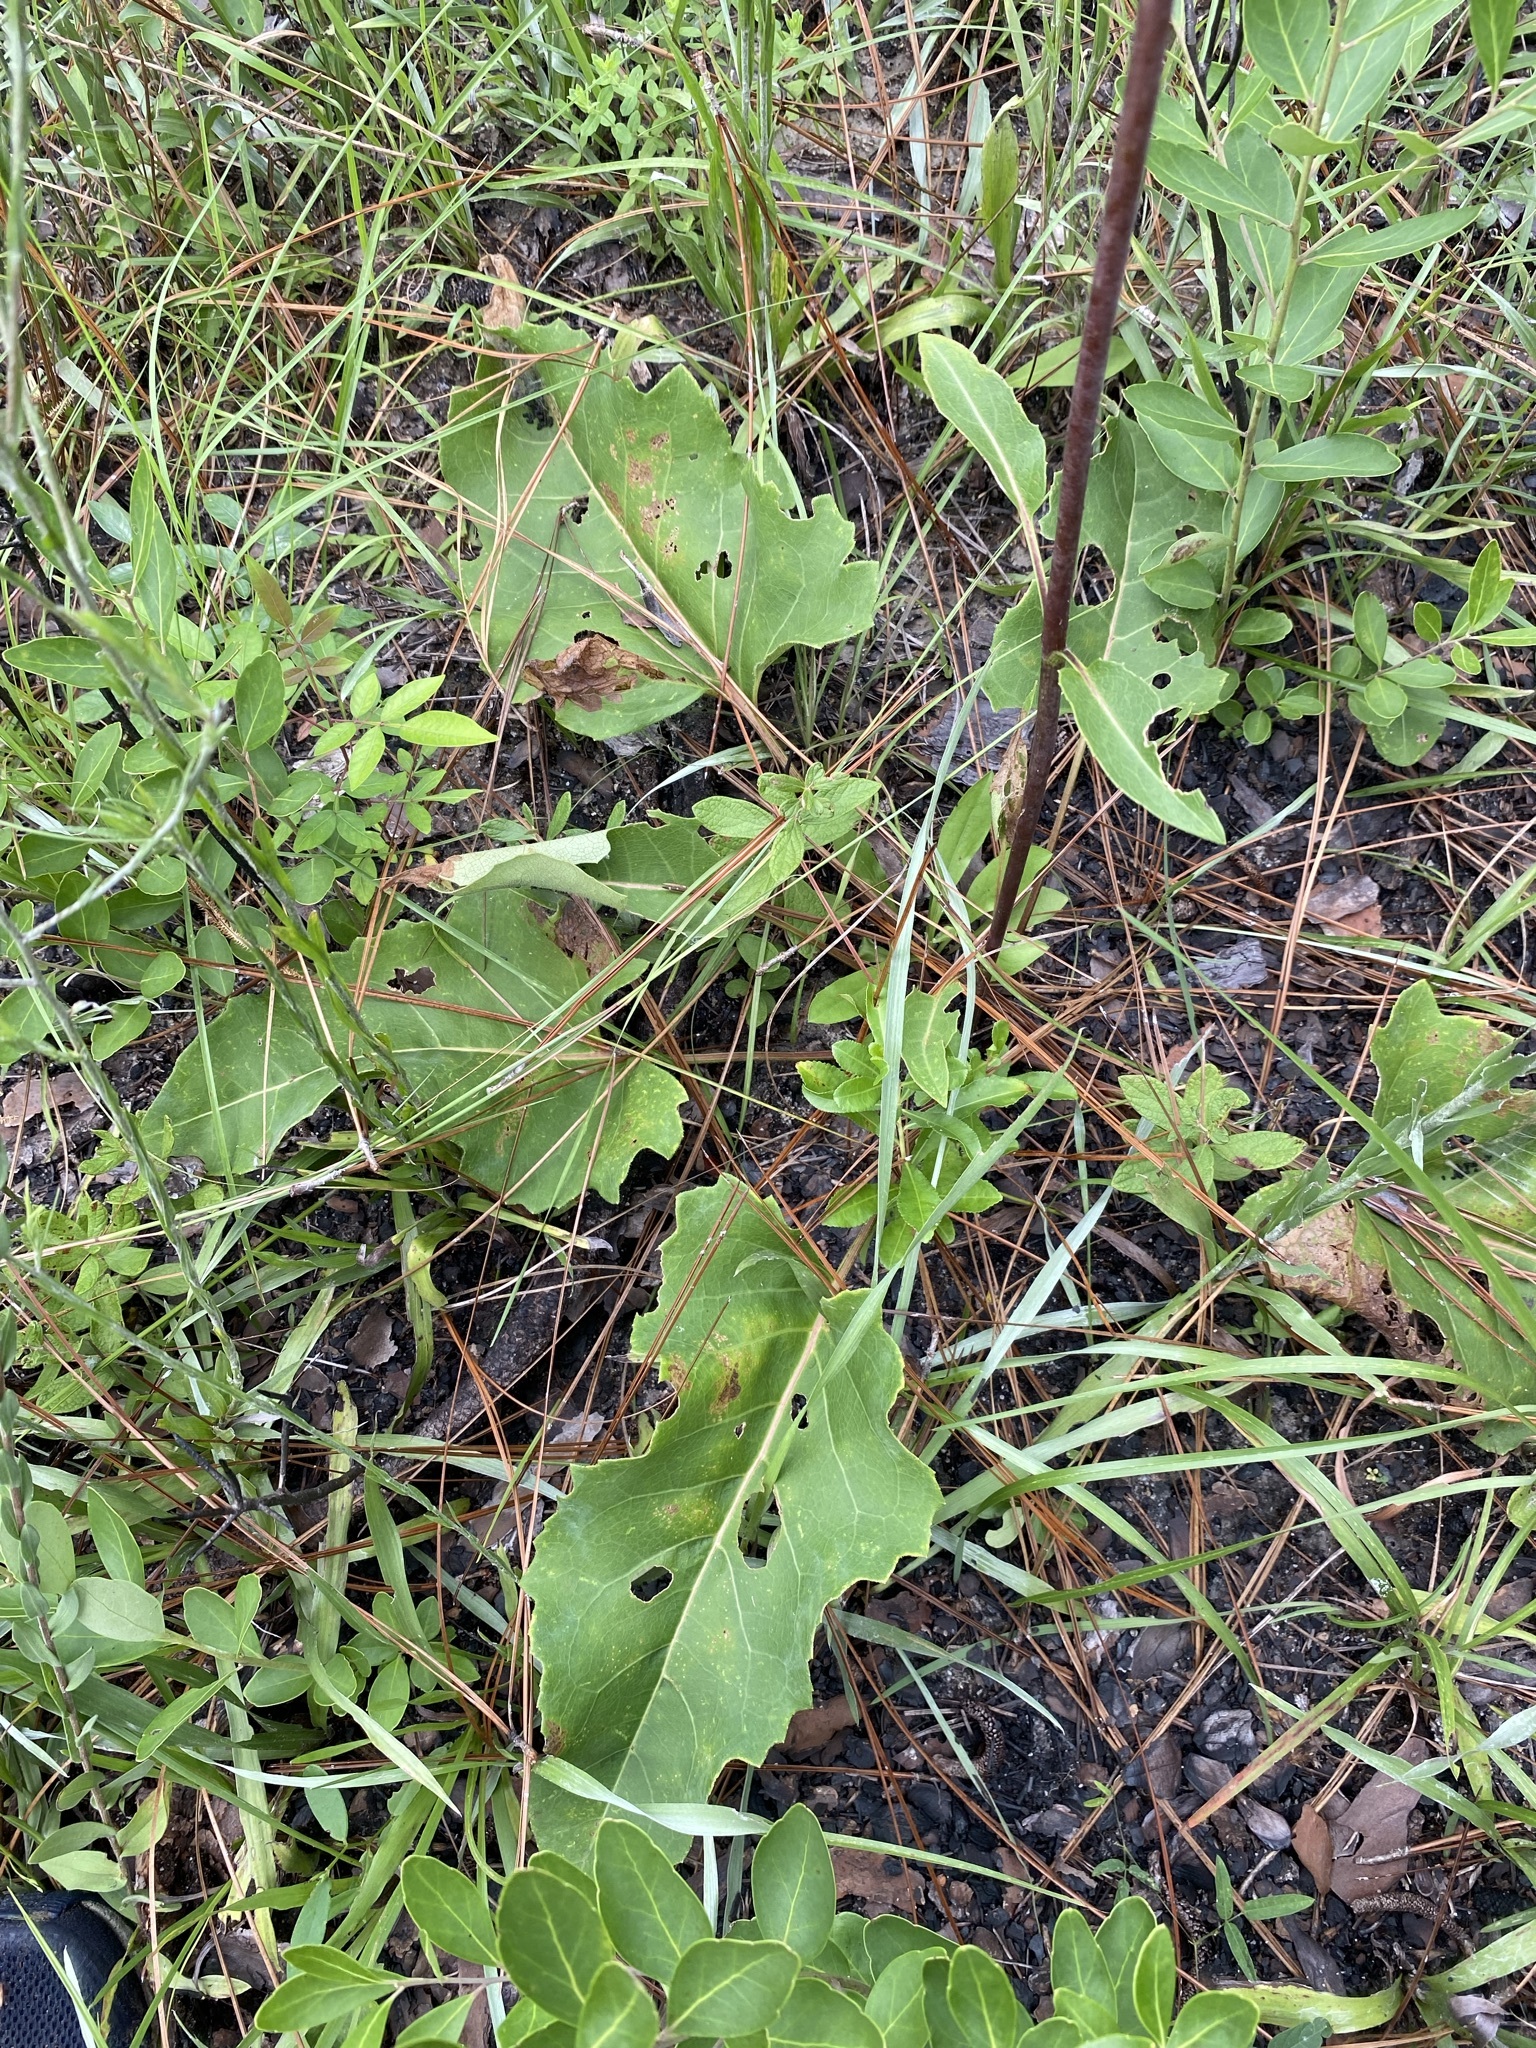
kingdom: Plantae
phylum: Tracheophyta
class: Magnoliopsida
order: Asterales
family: Asteraceae
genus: Silphium
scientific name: Silphium compositum
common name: Lesser basal-leaf rosinweed
